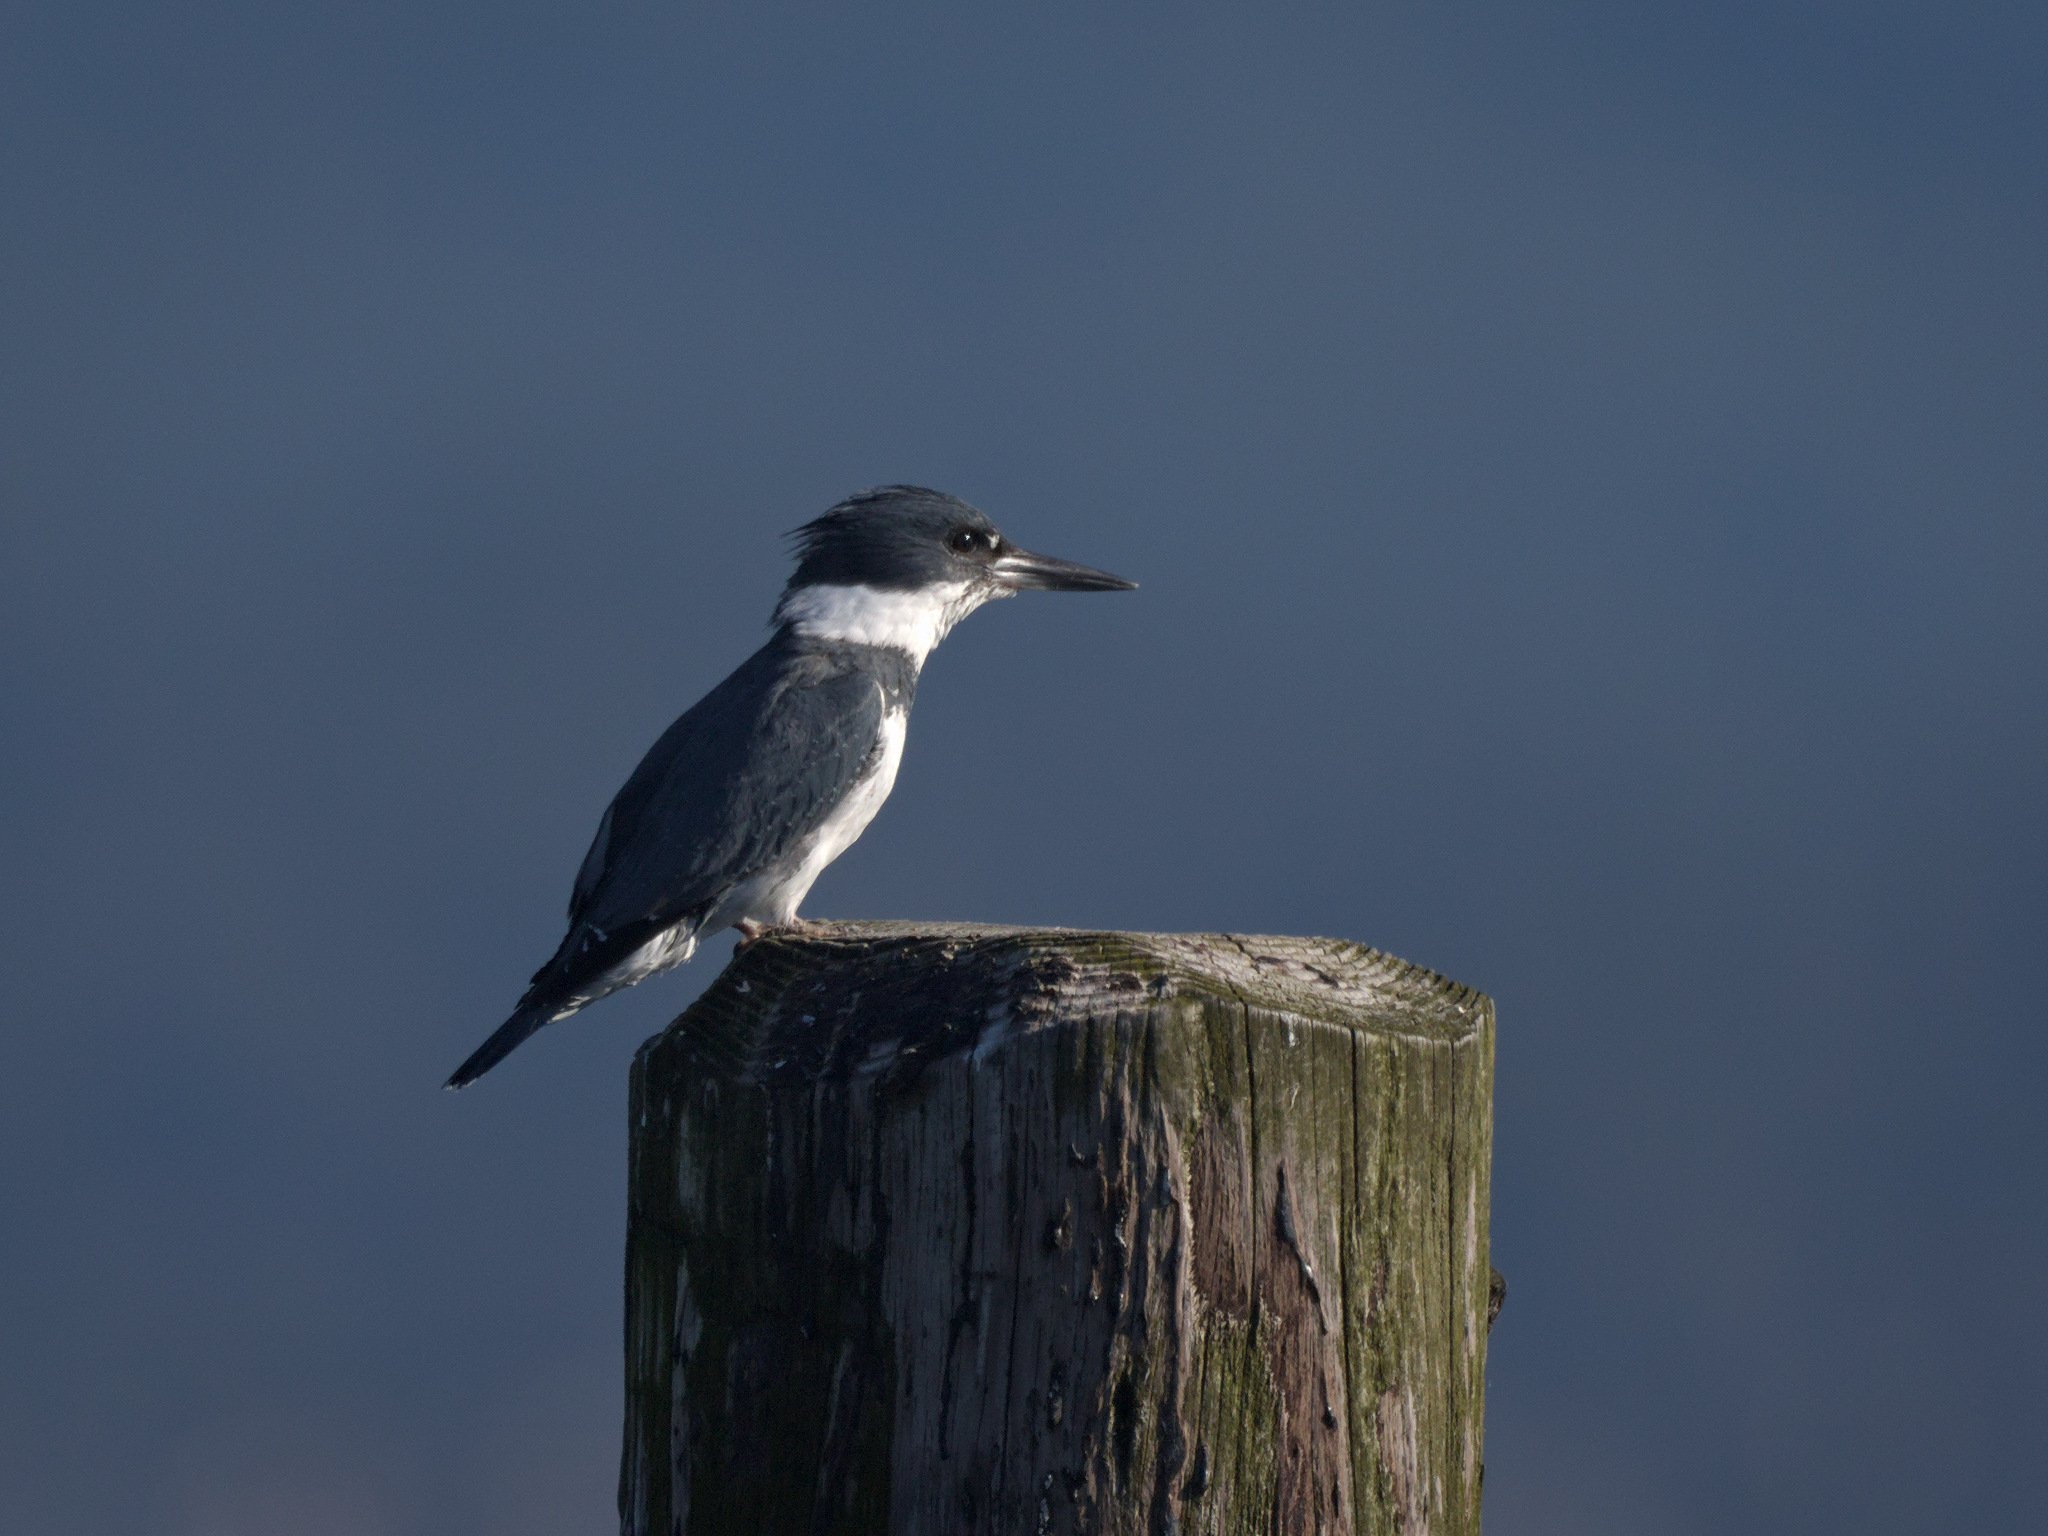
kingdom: Animalia
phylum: Chordata
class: Aves
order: Coraciiformes
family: Alcedinidae
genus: Megaceryle
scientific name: Megaceryle alcyon
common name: Belted kingfisher
